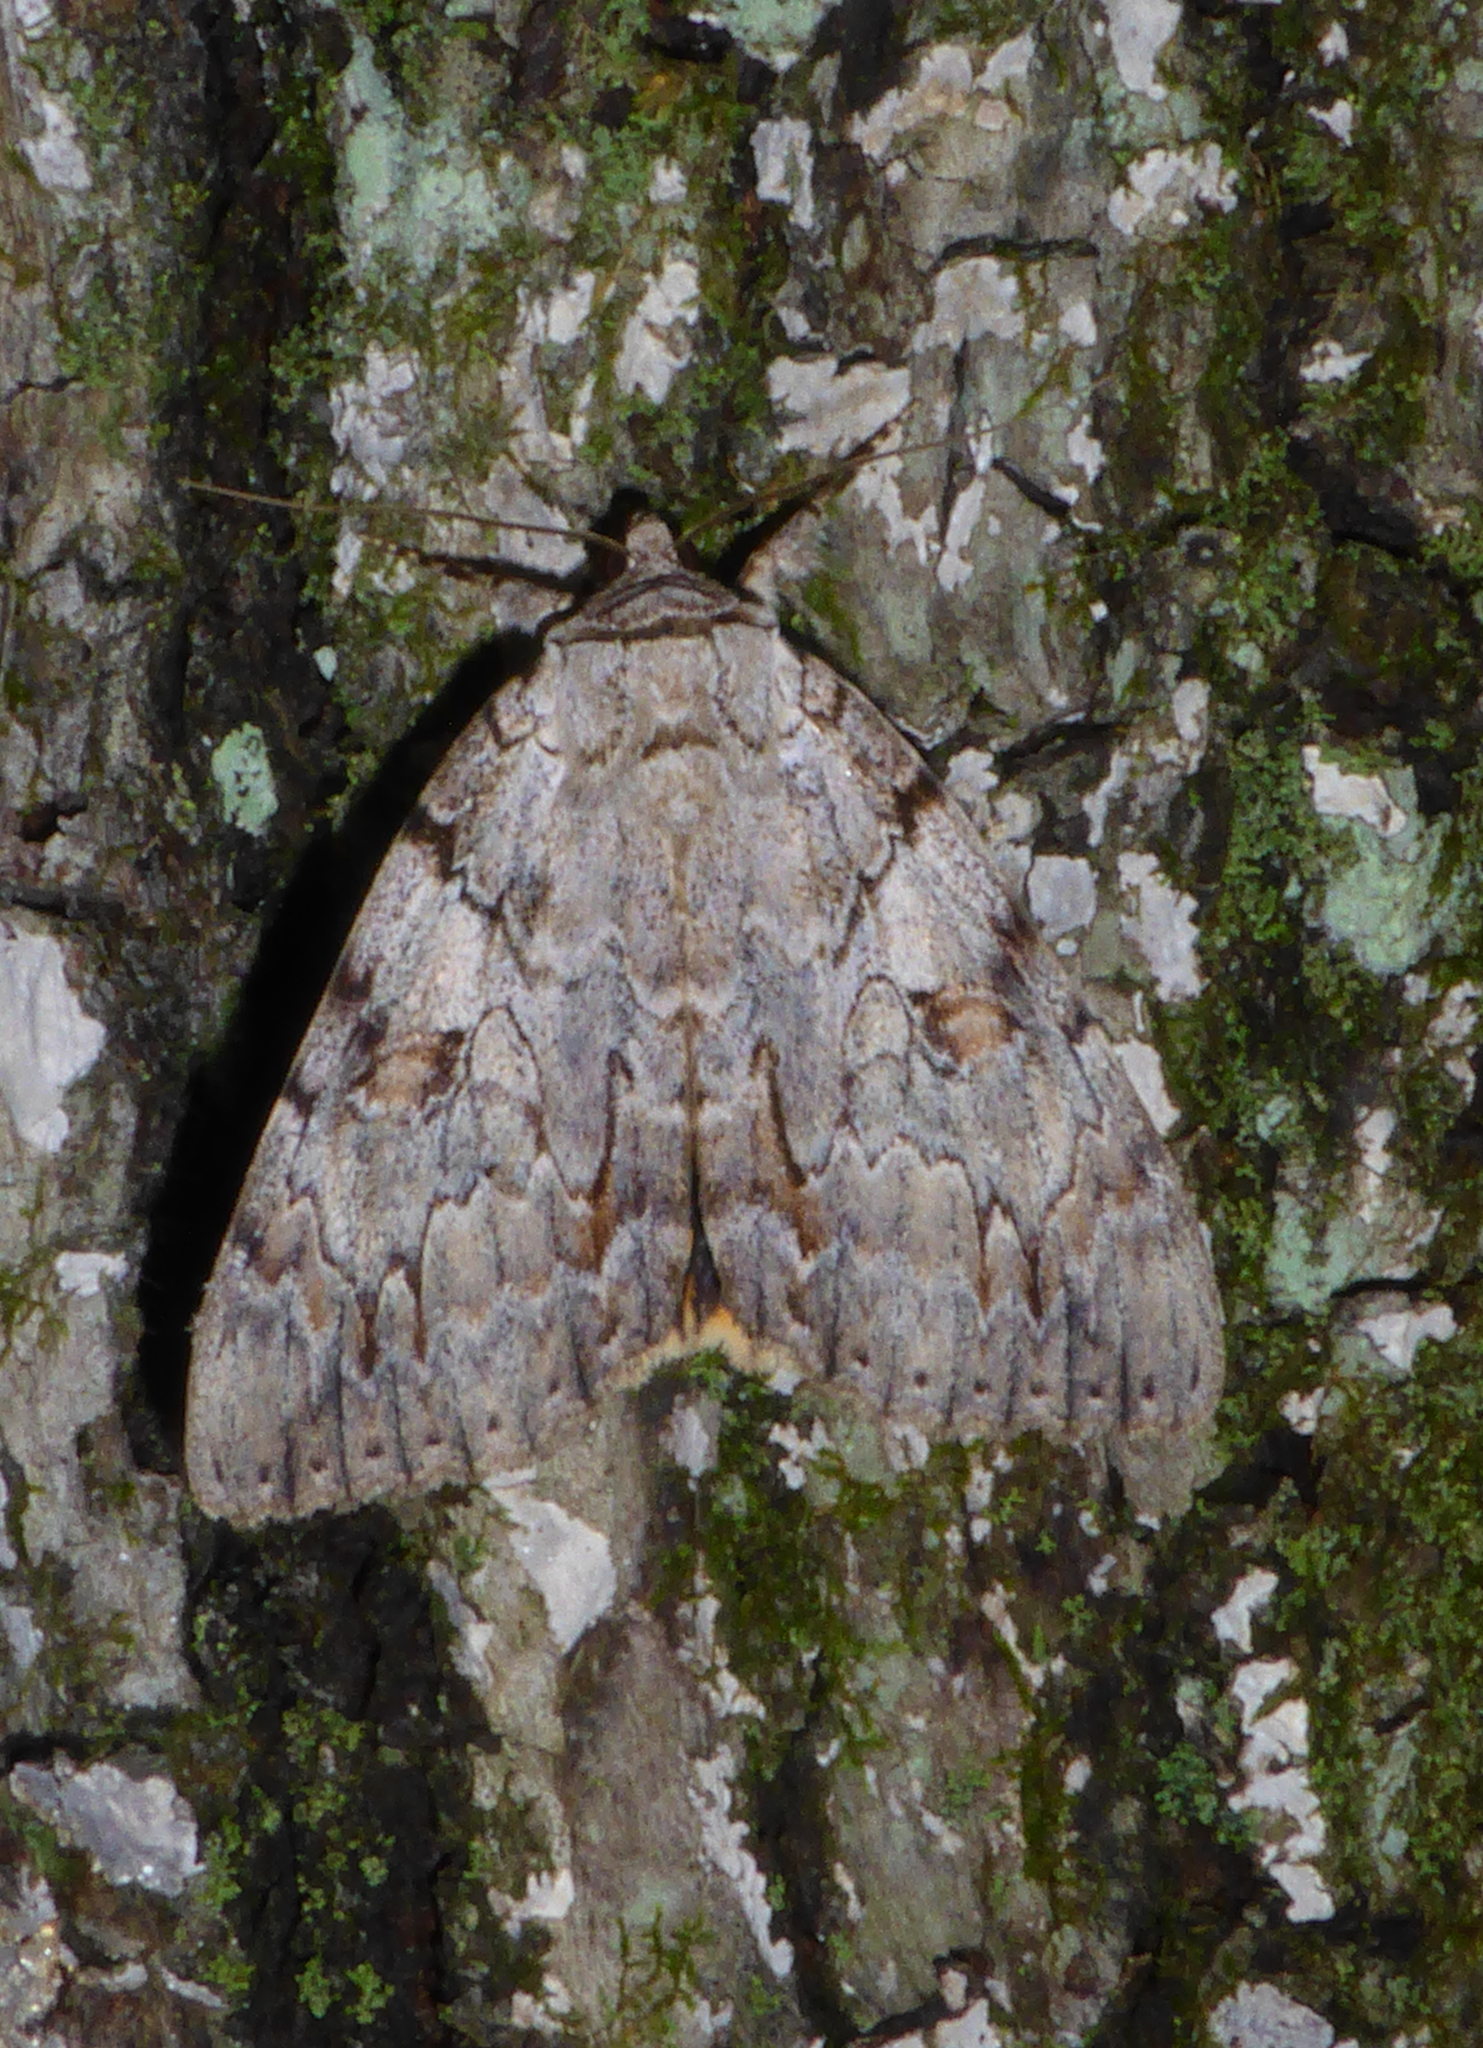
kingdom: Animalia
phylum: Arthropoda
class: Insecta
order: Lepidoptera
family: Erebidae
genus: Catocala
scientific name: Catocala subnata
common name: Youthful underwing
